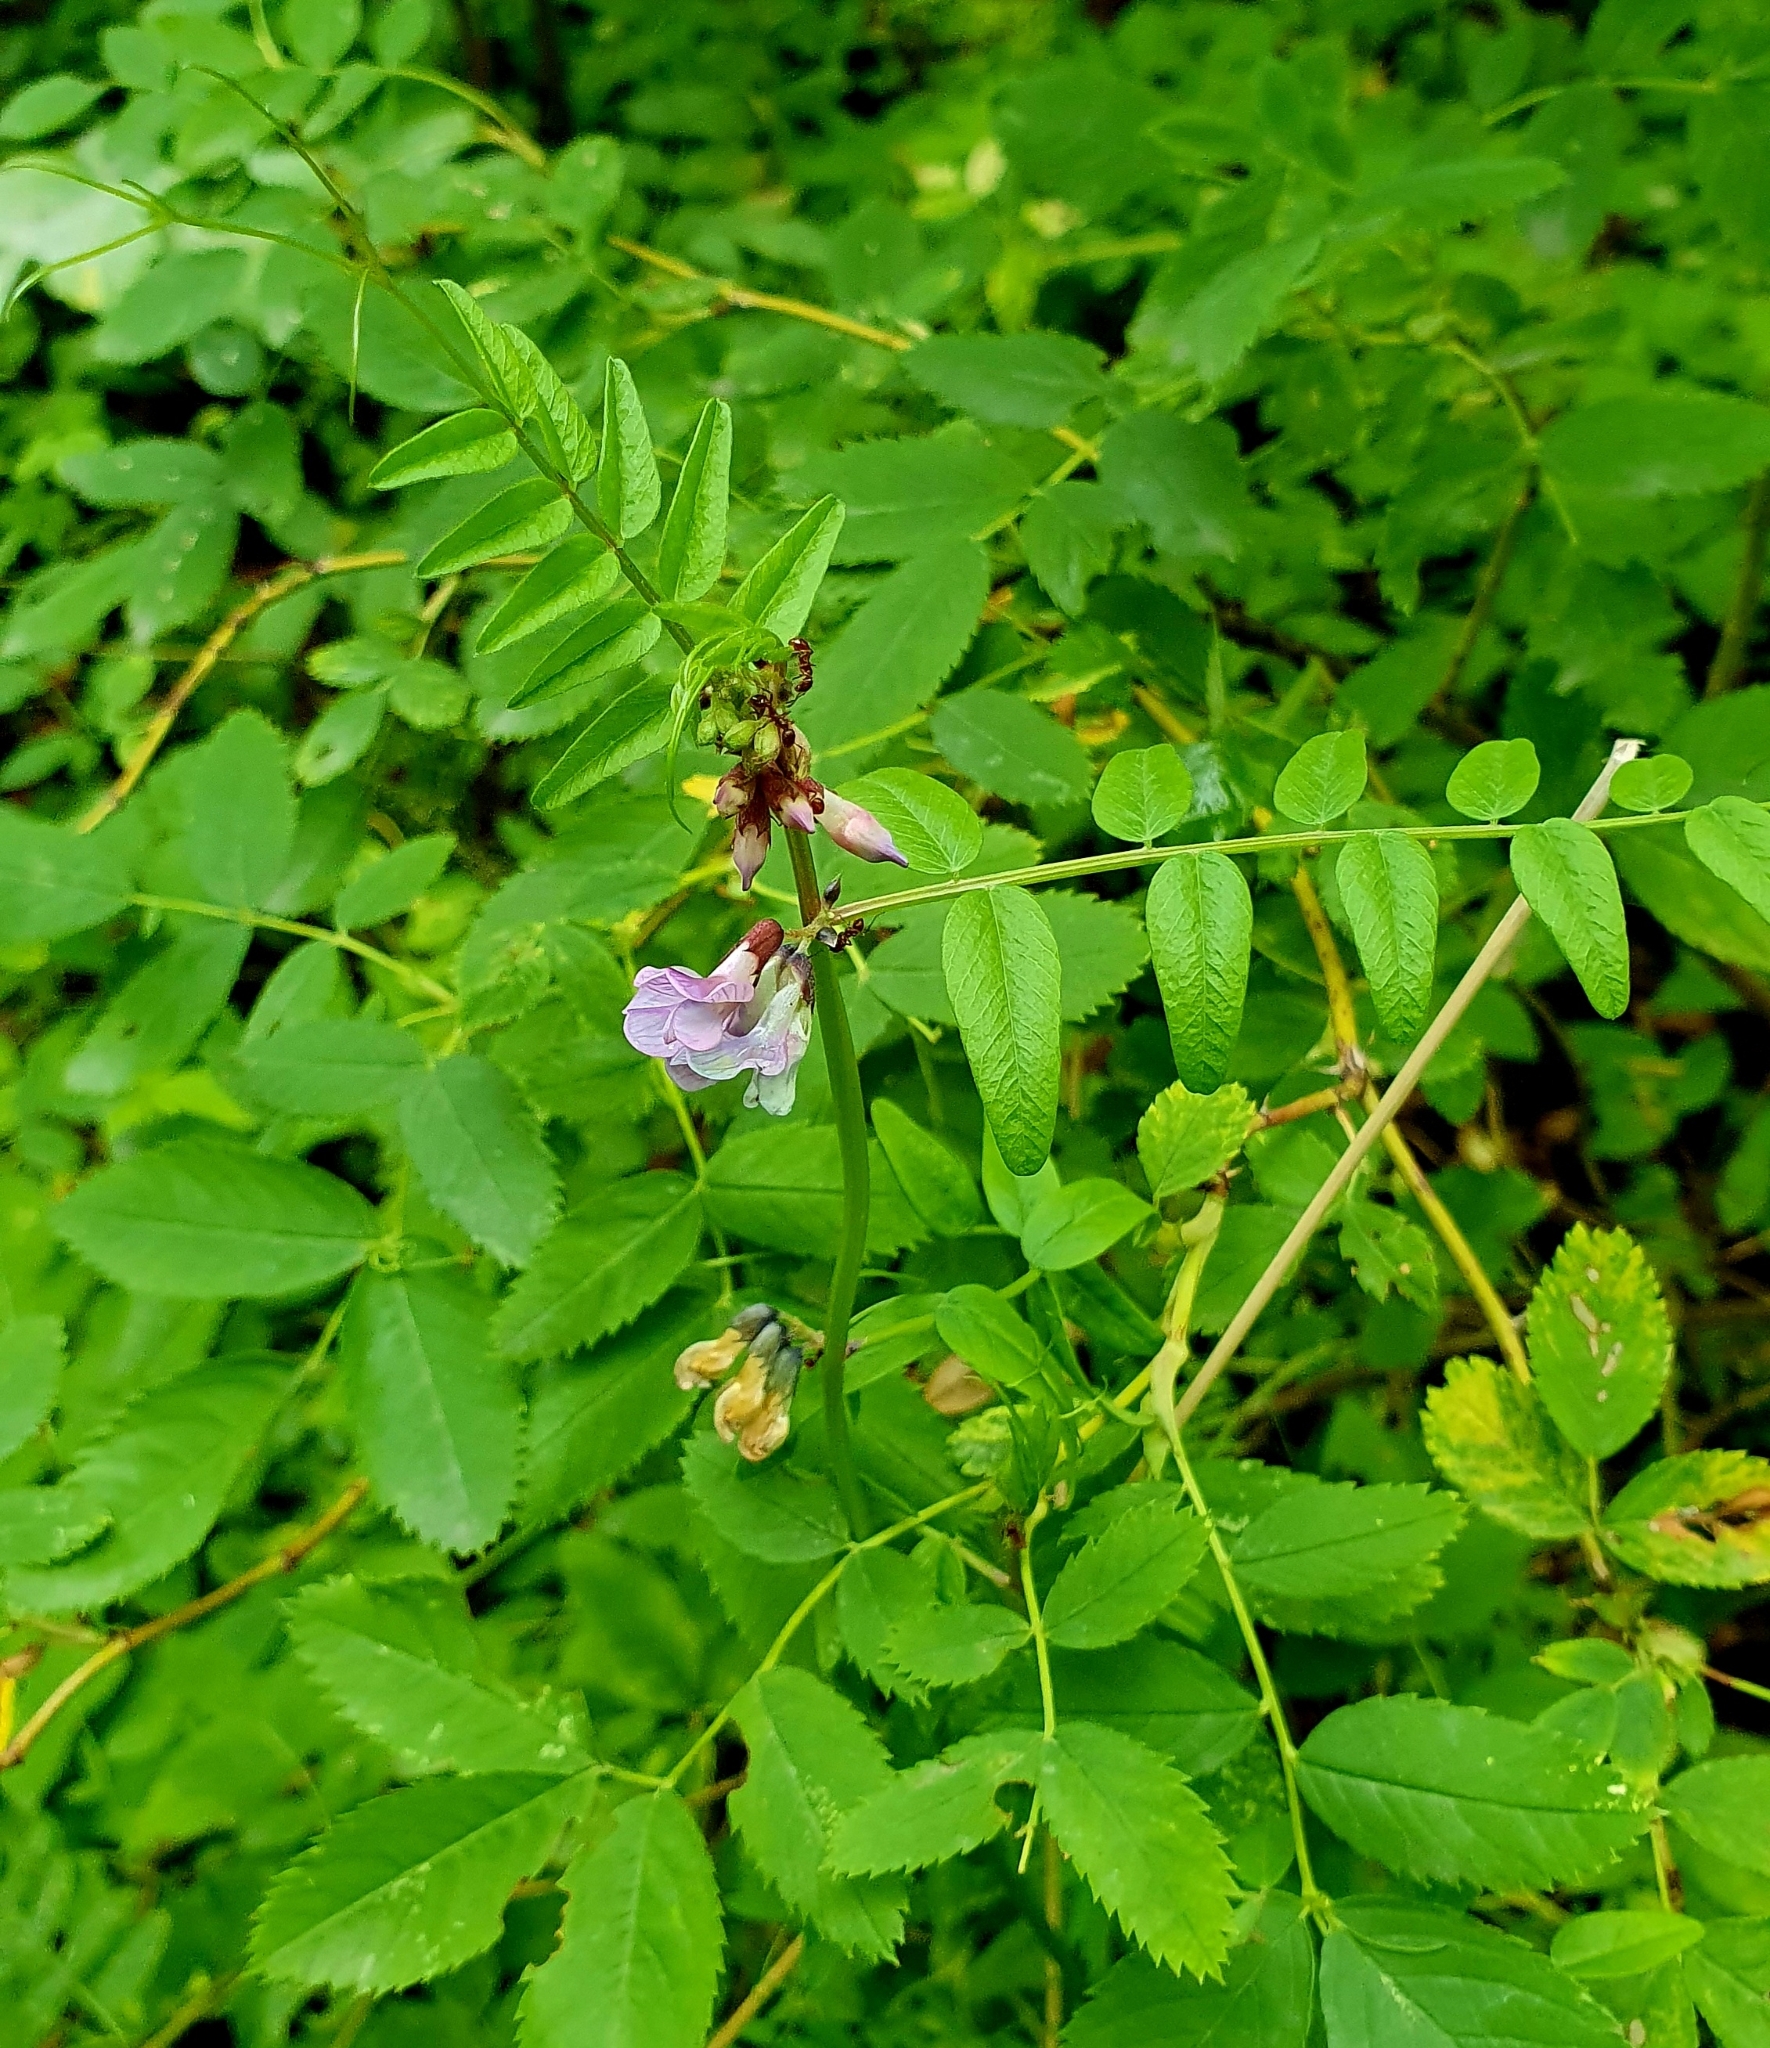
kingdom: Plantae
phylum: Tracheophyta
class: Magnoliopsida
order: Fabales
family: Fabaceae
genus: Vicia
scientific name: Vicia sepium
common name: Bush vetch
